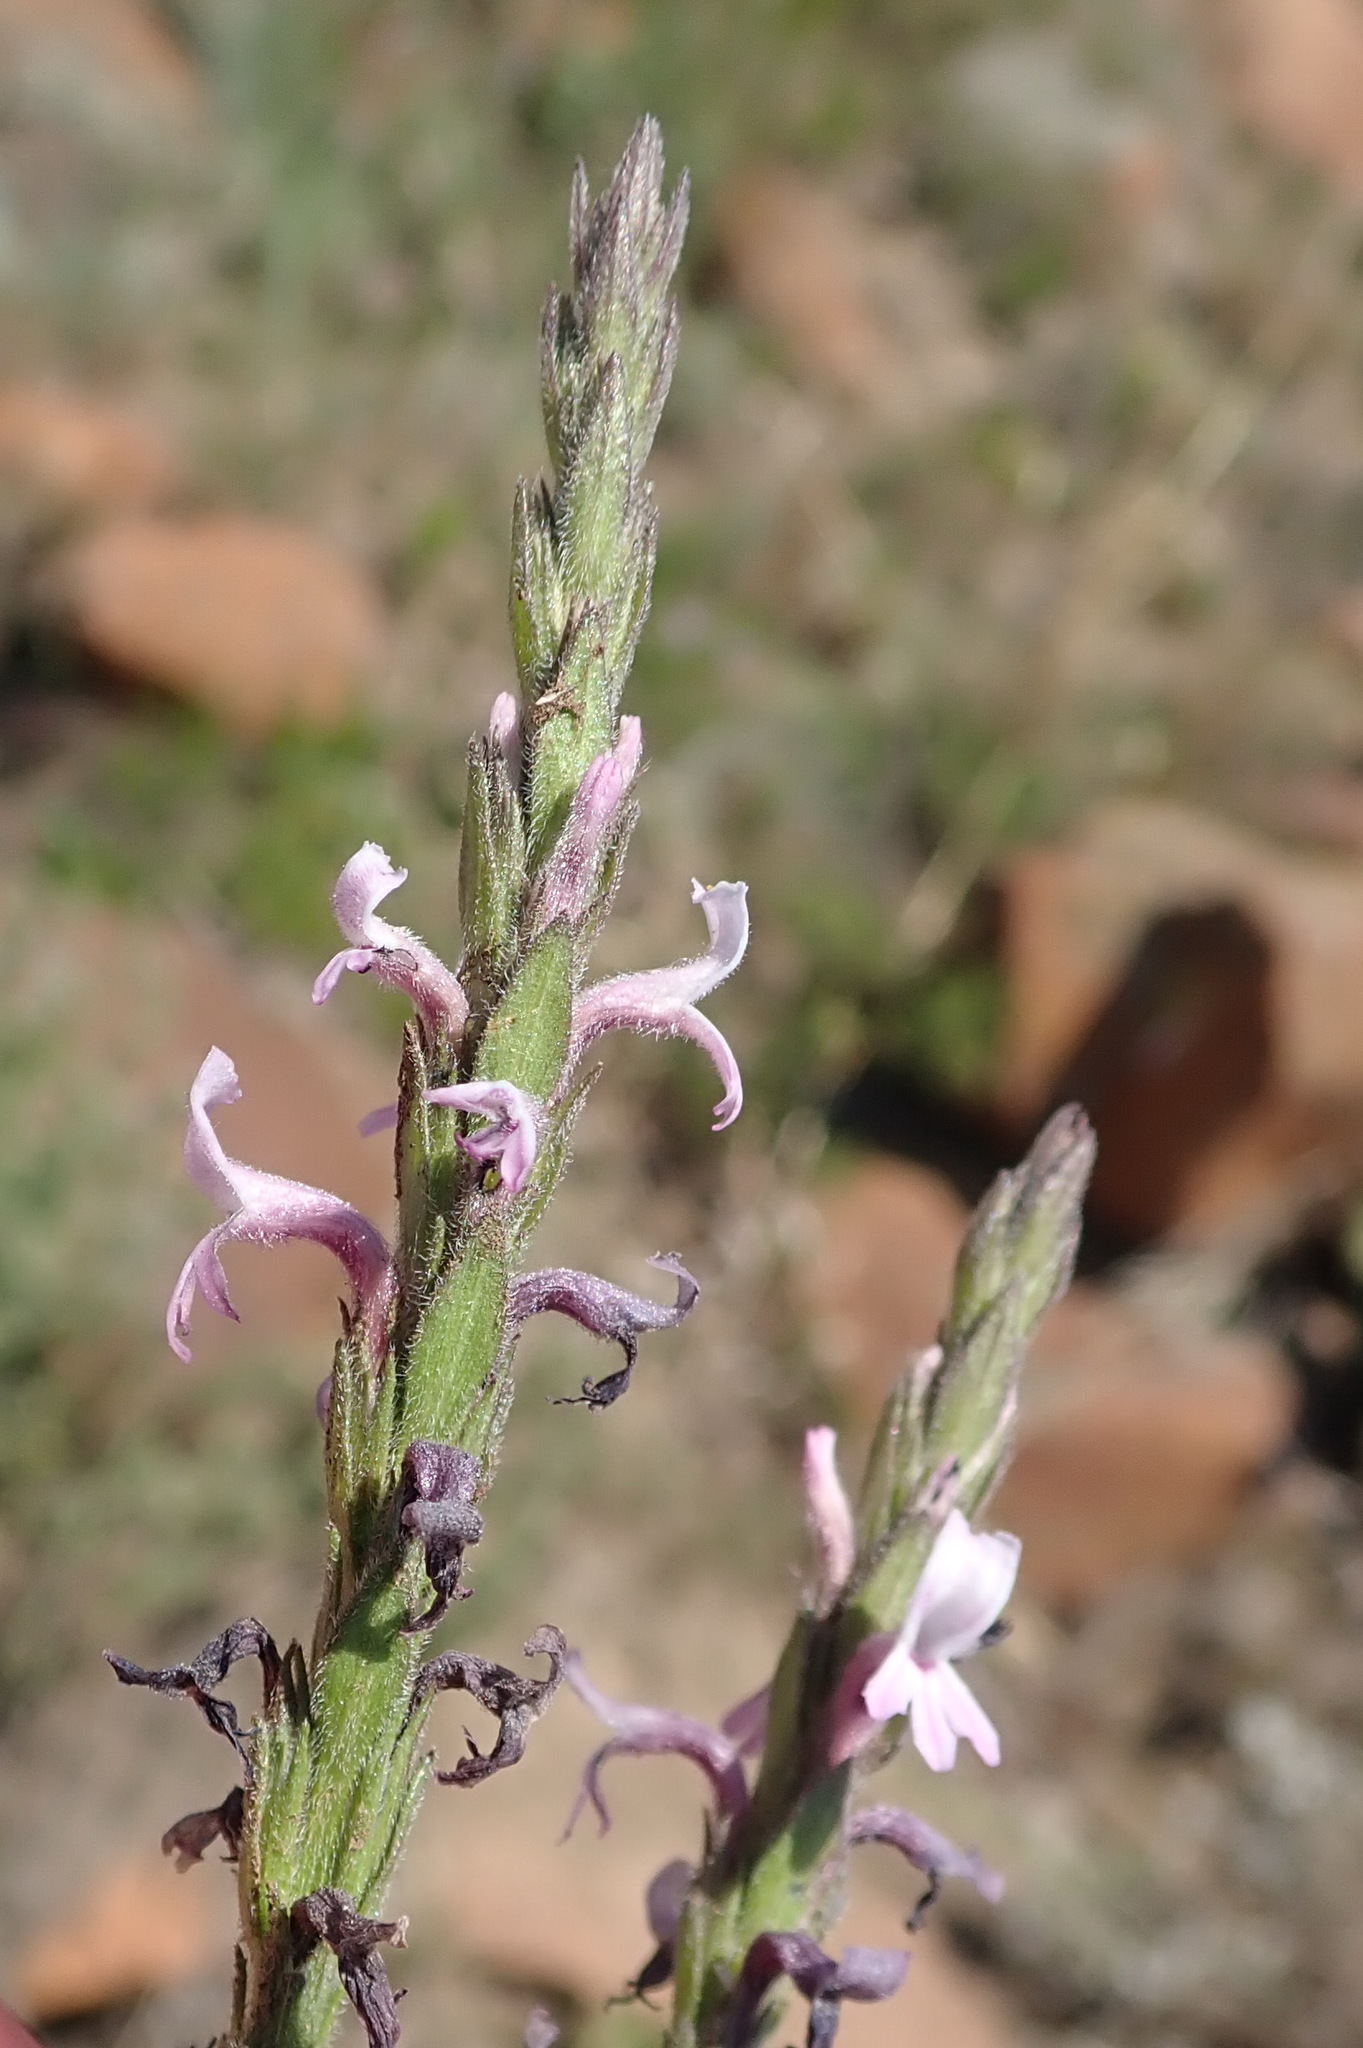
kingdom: Plantae
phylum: Tracheophyta
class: Magnoliopsida
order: Lamiales
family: Orobanchaceae
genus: Striga
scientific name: Striga bilabiata
